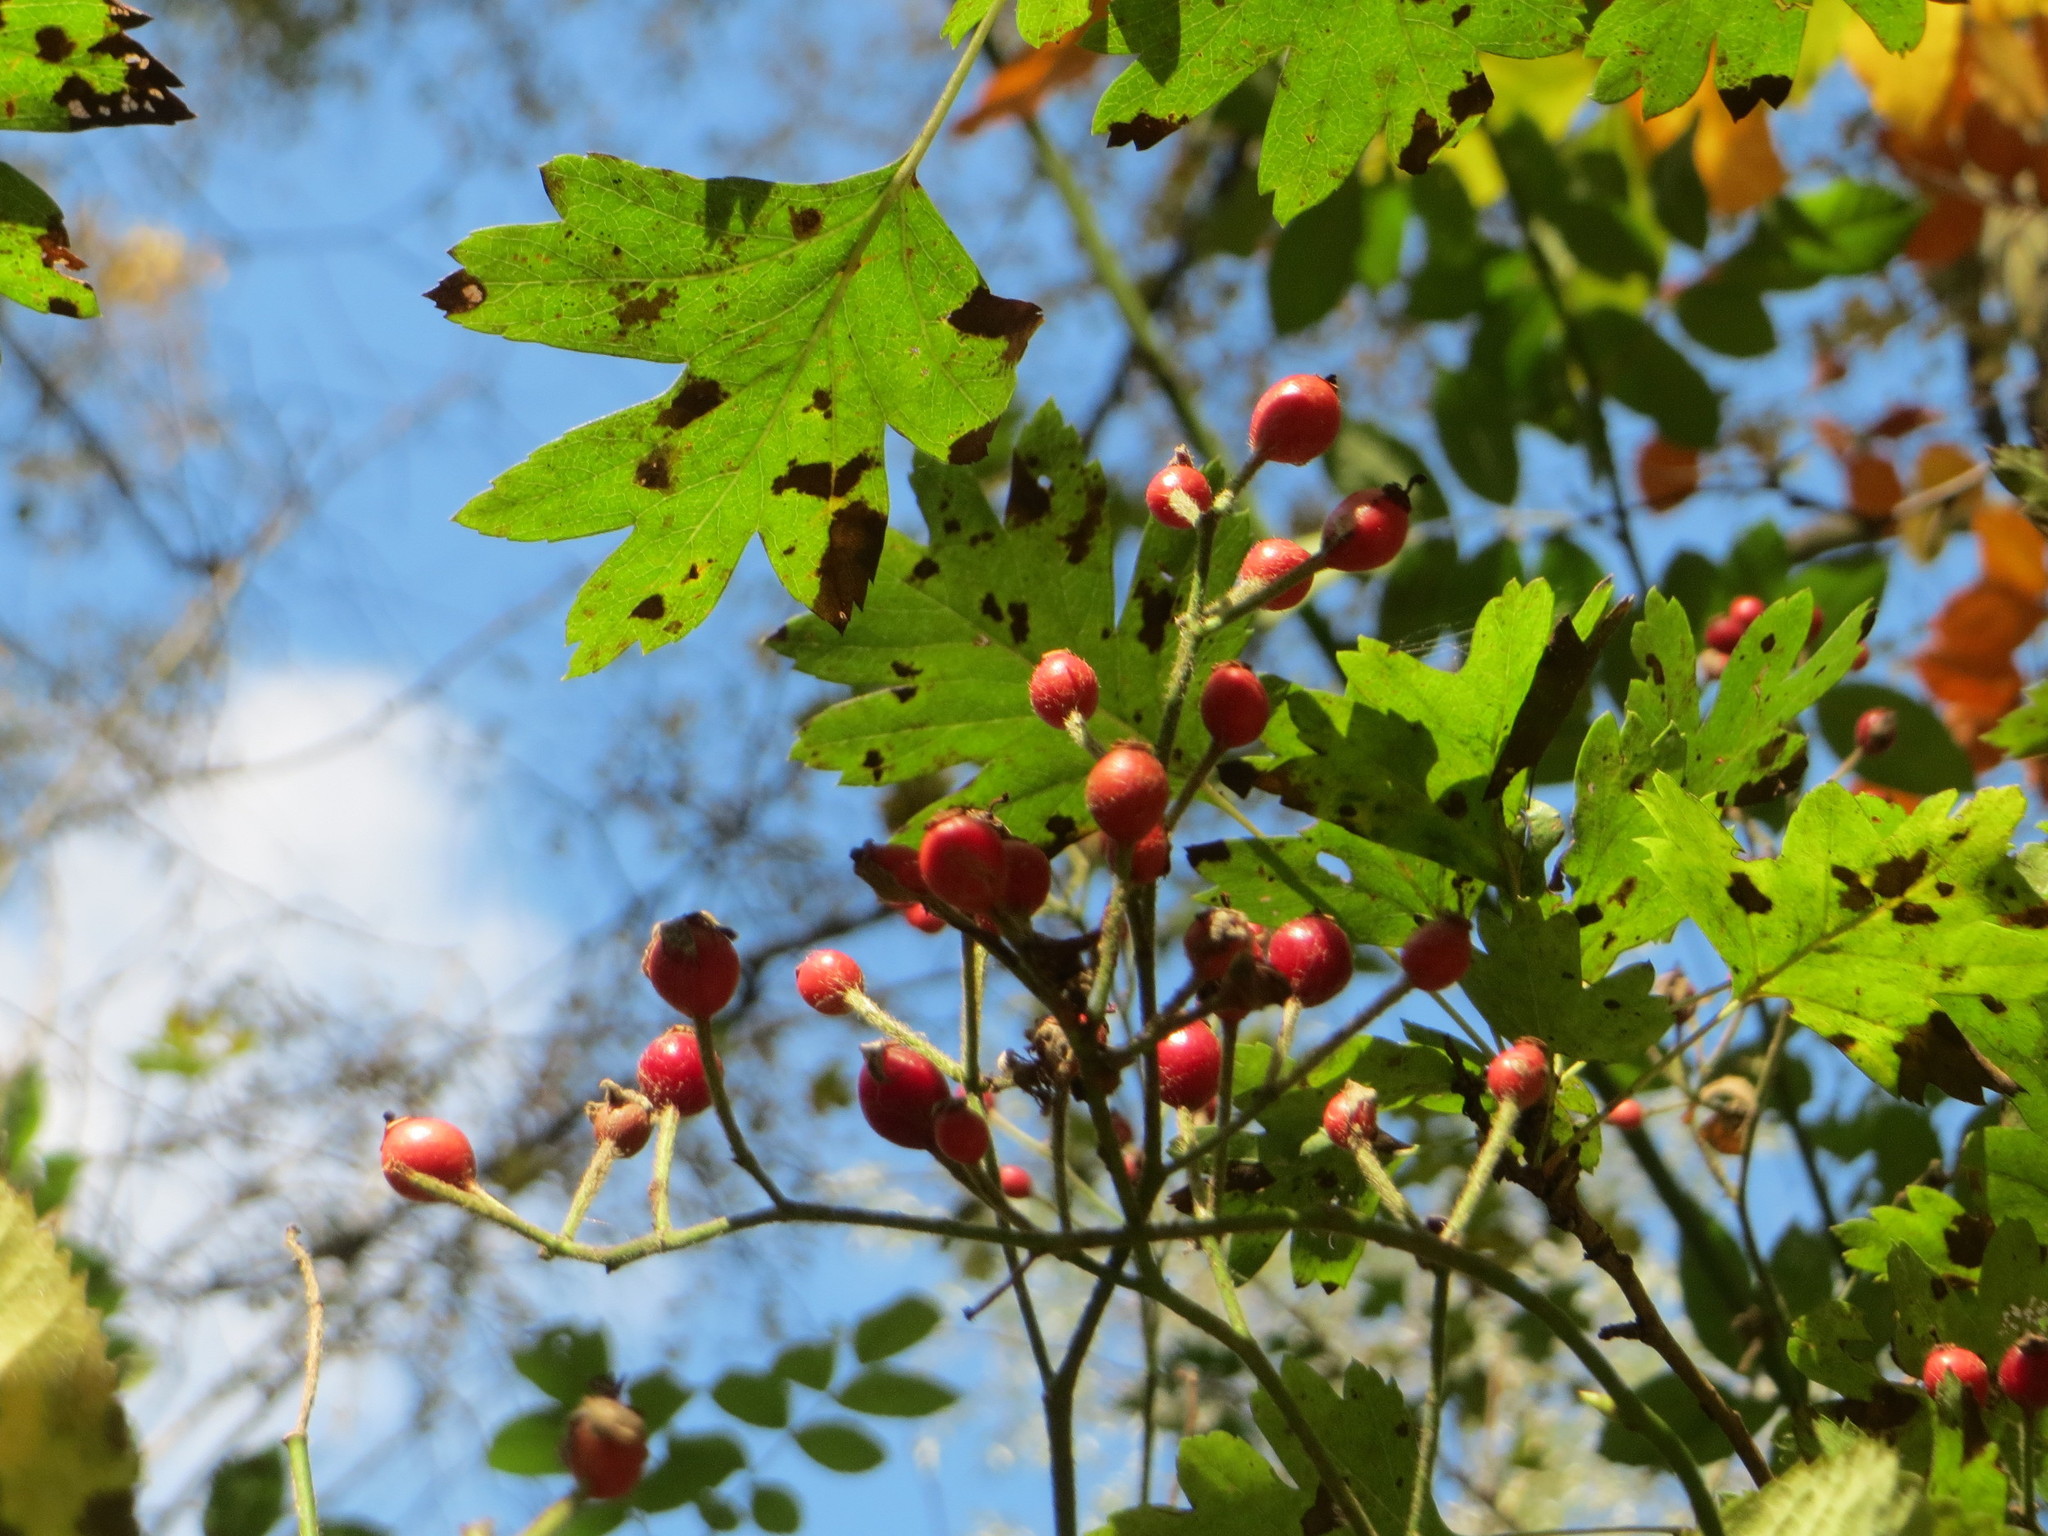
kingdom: Plantae
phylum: Tracheophyta
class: Magnoliopsida
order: Rosales
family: Rosaceae
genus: Rosa
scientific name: Rosa multiflora
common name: Multiflora rose
